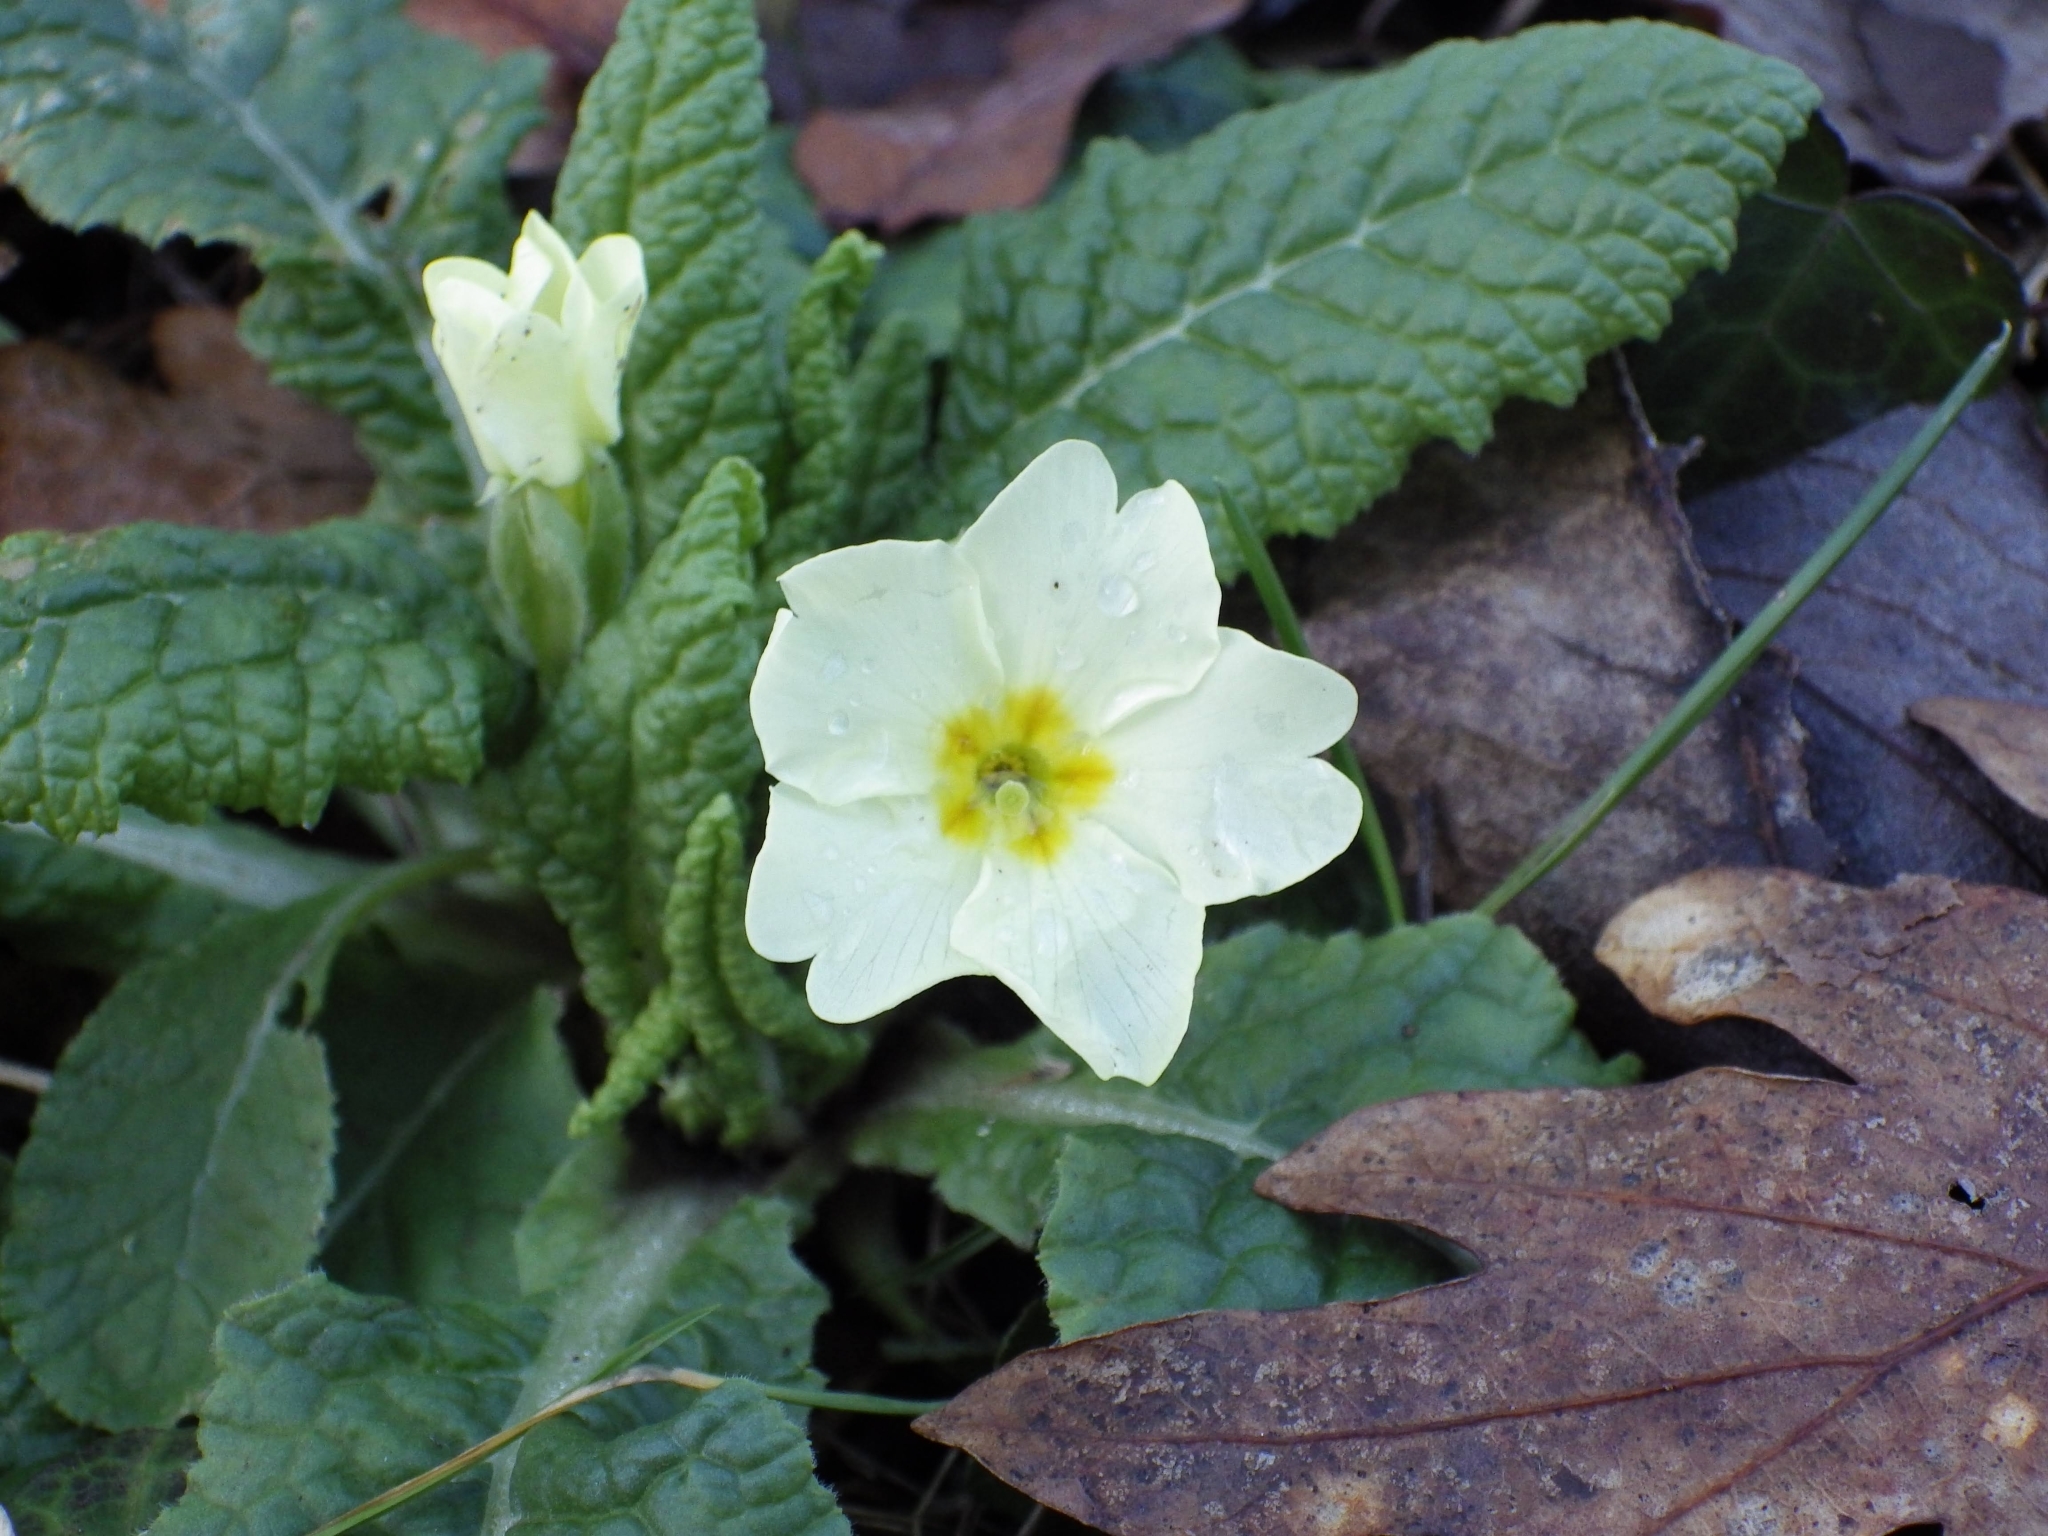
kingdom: Plantae
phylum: Tracheophyta
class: Magnoliopsida
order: Ericales
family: Primulaceae
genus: Primula
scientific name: Primula vulgaris
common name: Primrose
